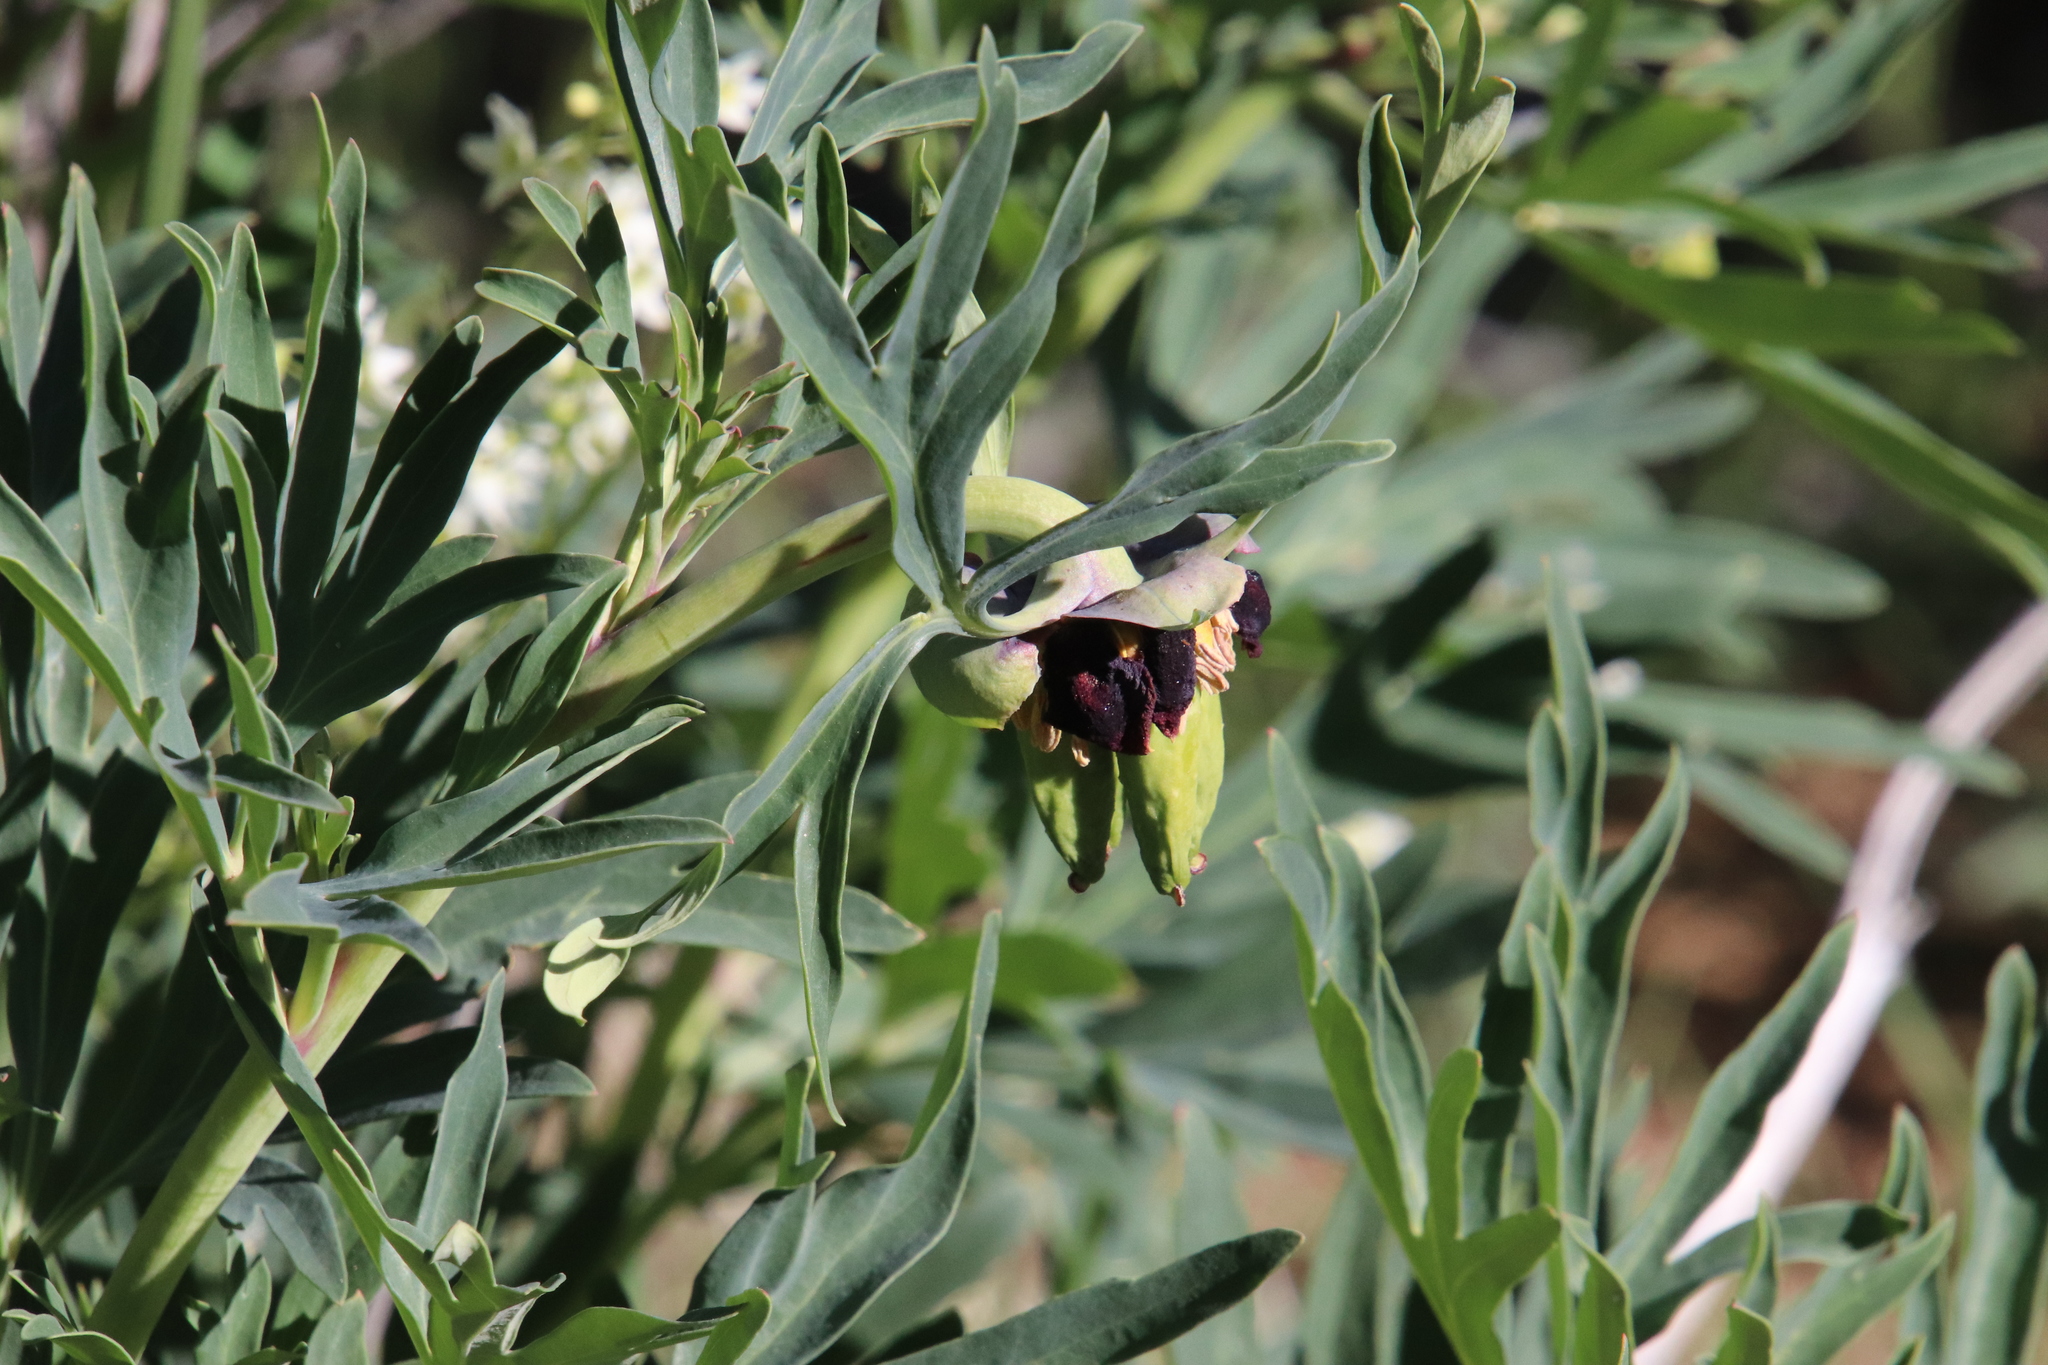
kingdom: Plantae
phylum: Tracheophyta
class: Magnoliopsida
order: Saxifragales
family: Paeoniaceae
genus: Paeonia
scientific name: Paeonia californica
